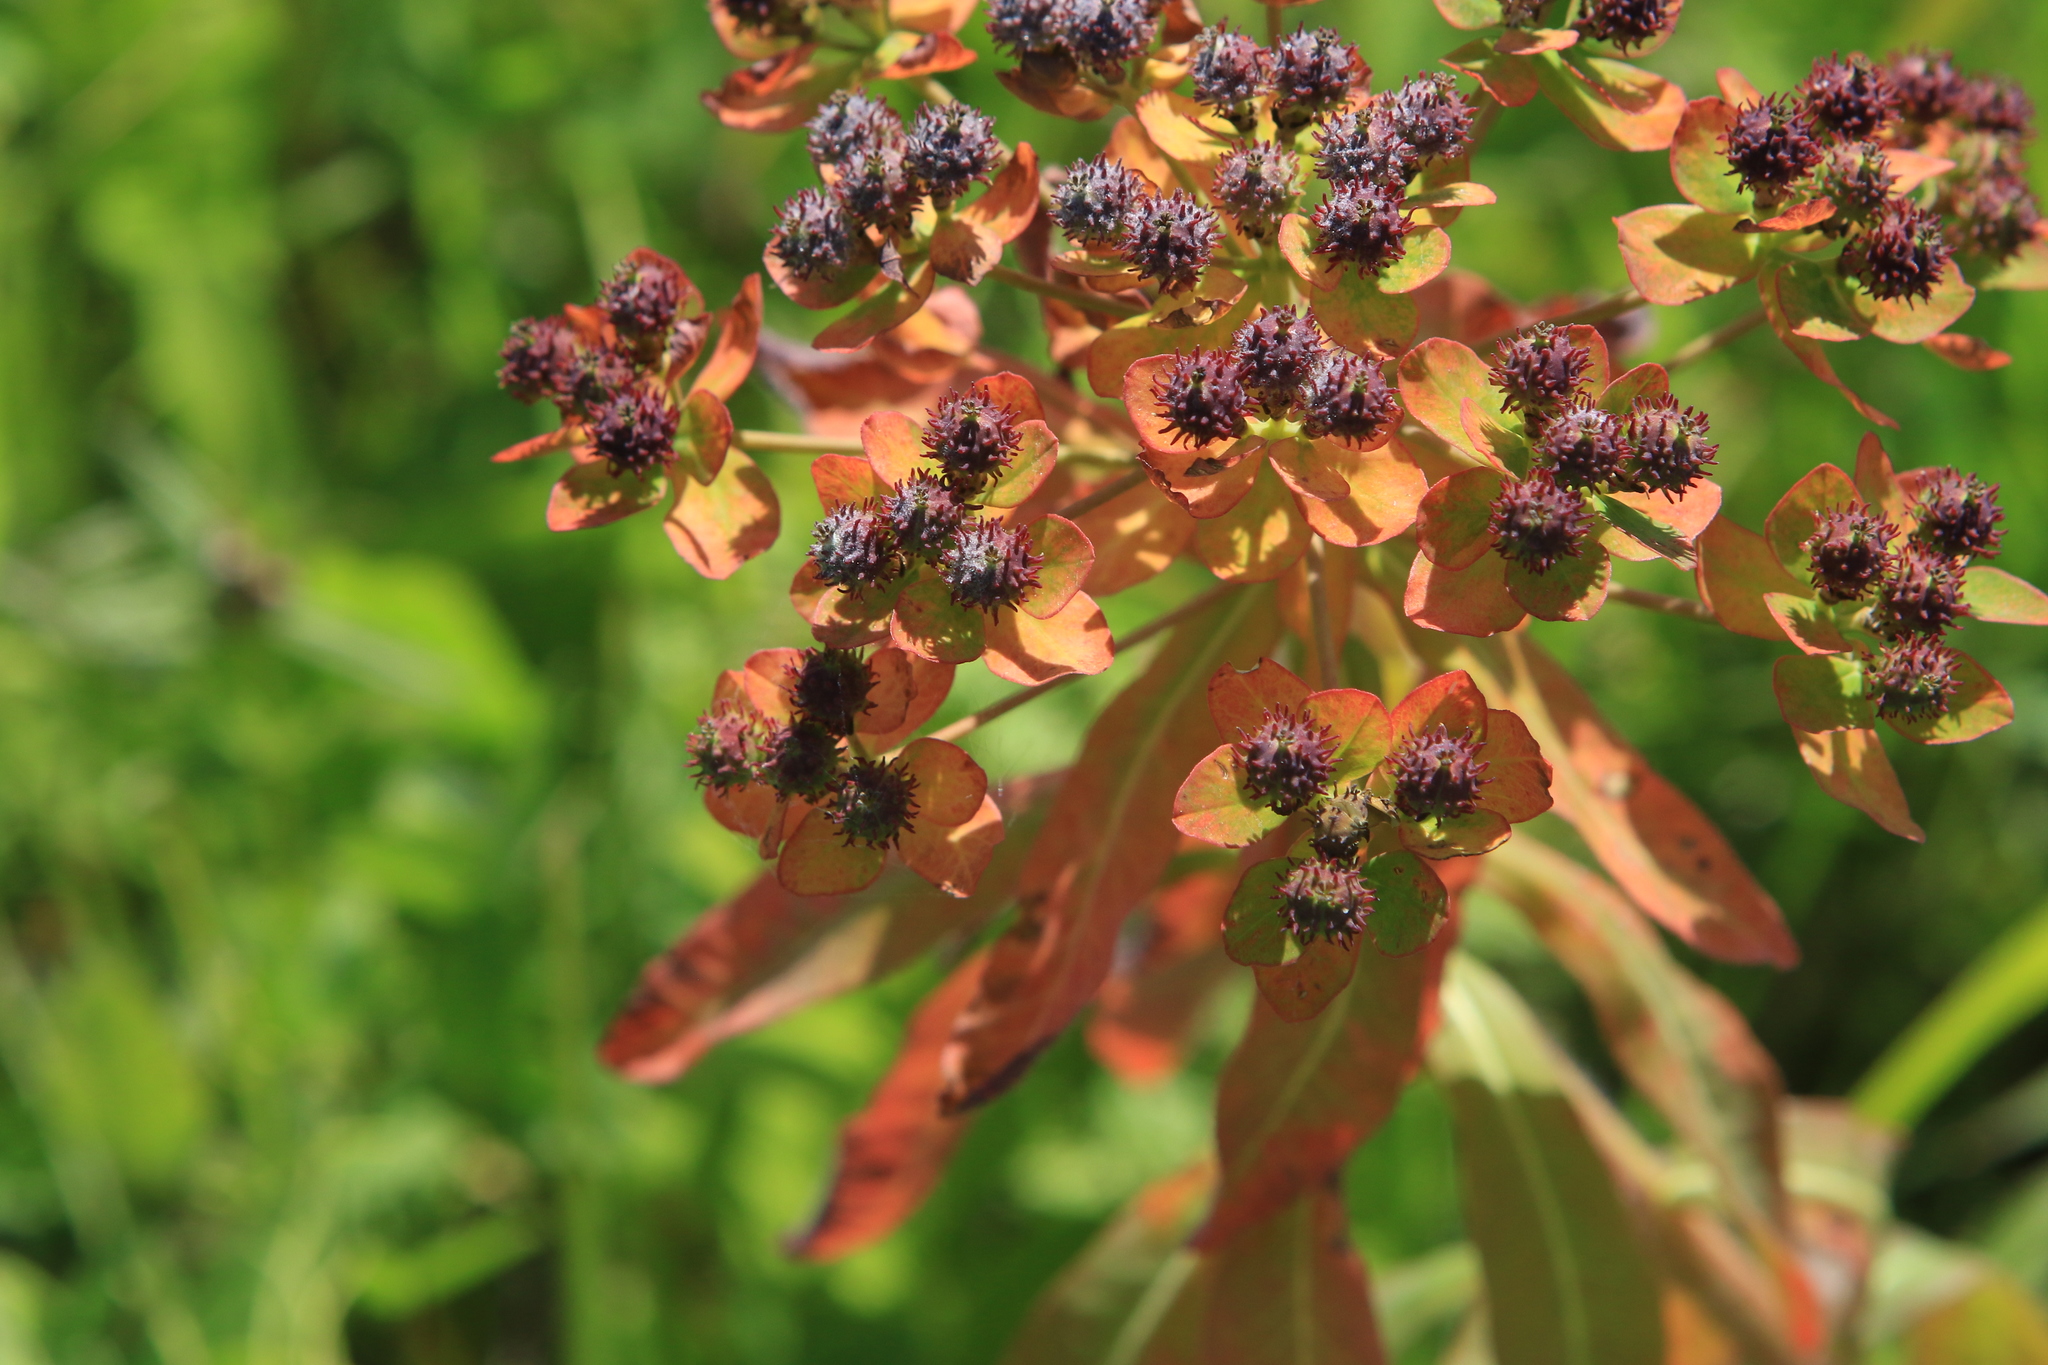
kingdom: Plantae
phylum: Tracheophyta
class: Magnoliopsida
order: Malpighiales
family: Euphorbiaceae
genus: Euphorbia
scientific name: Euphorbia pilosa
